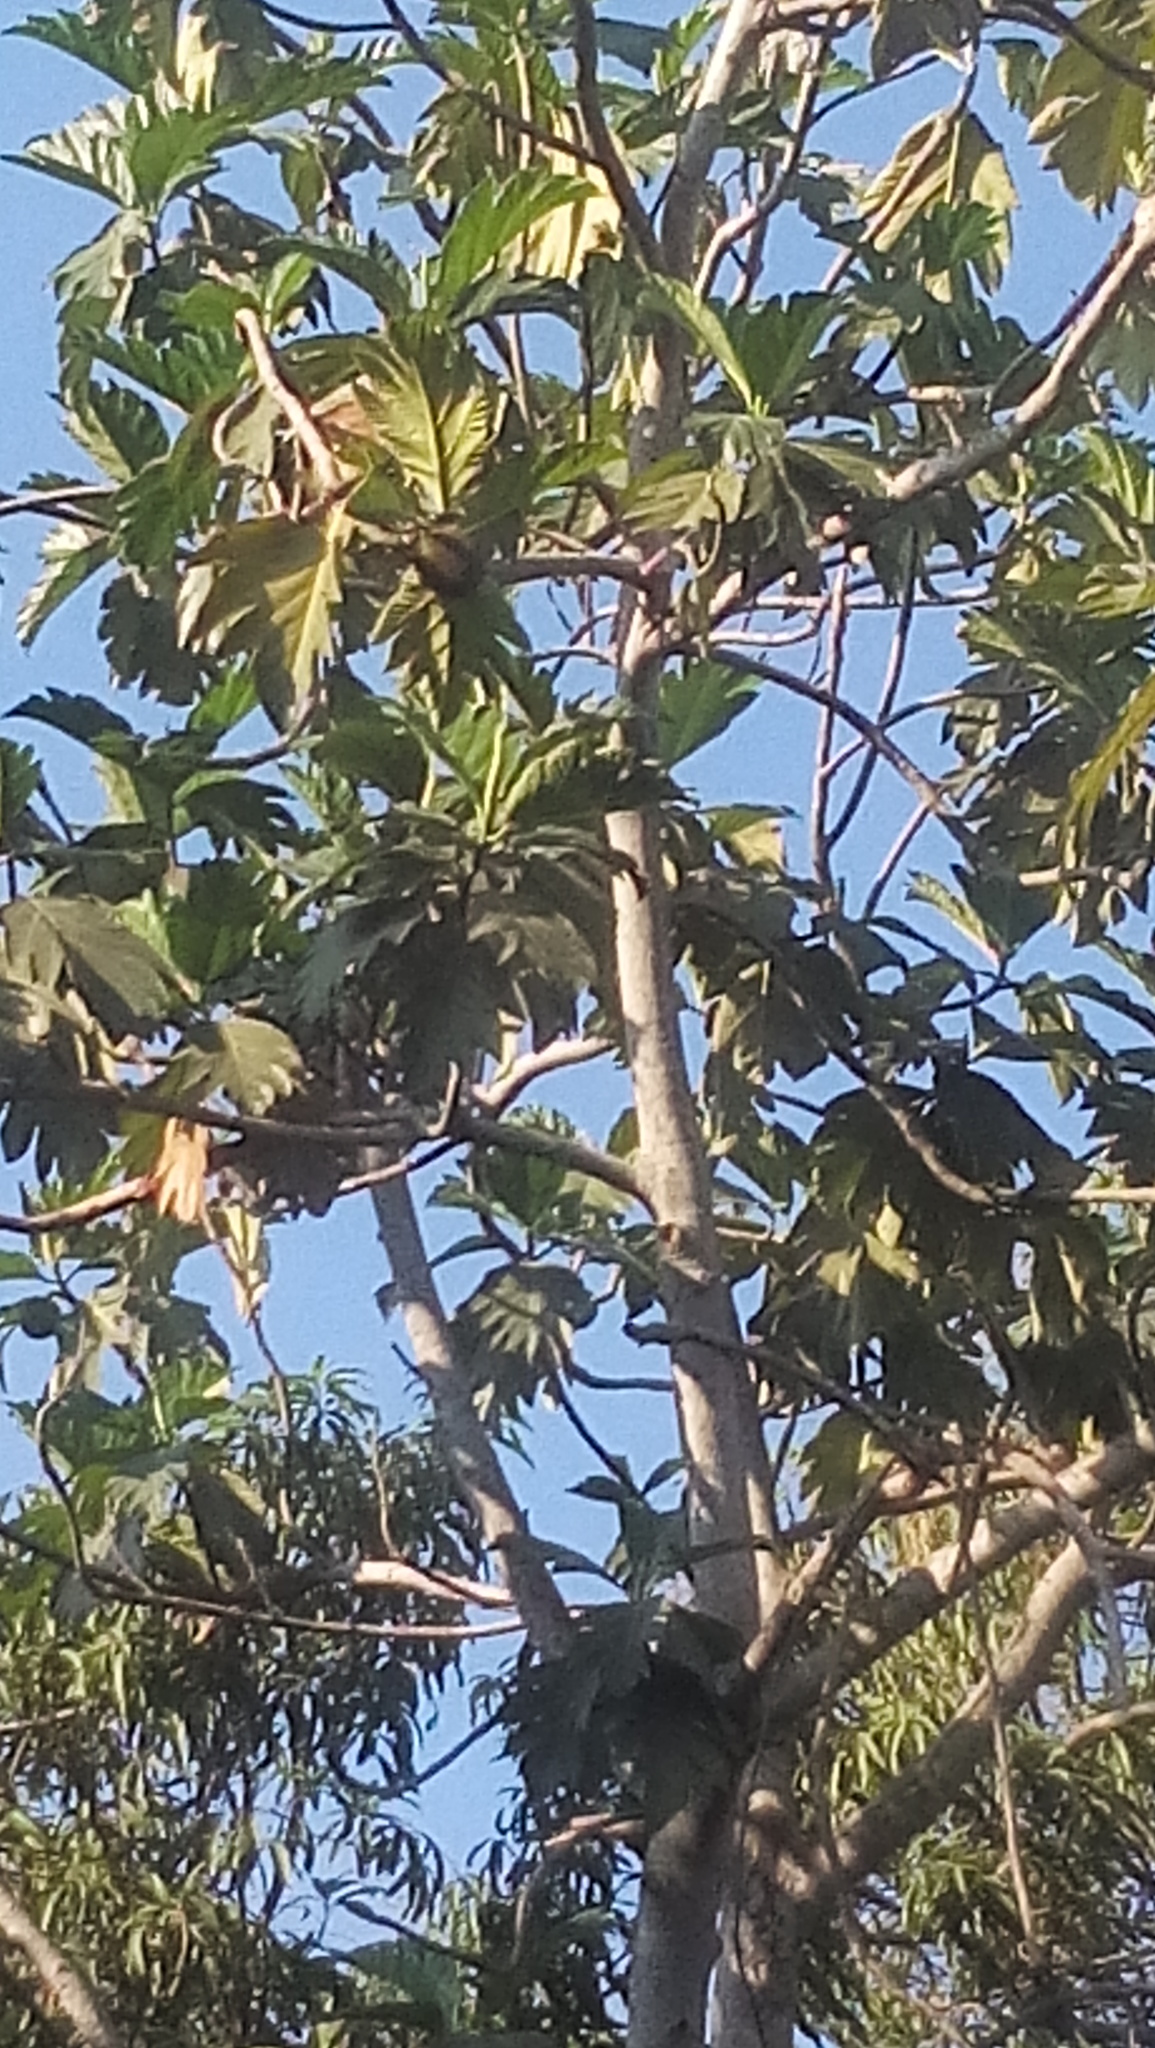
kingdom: Plantae
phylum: Tracheophyta
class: Magnoliopsida
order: Rosales
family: Moraceae
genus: Artocarpus
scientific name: Artocarpus altilis
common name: Breadfruit
